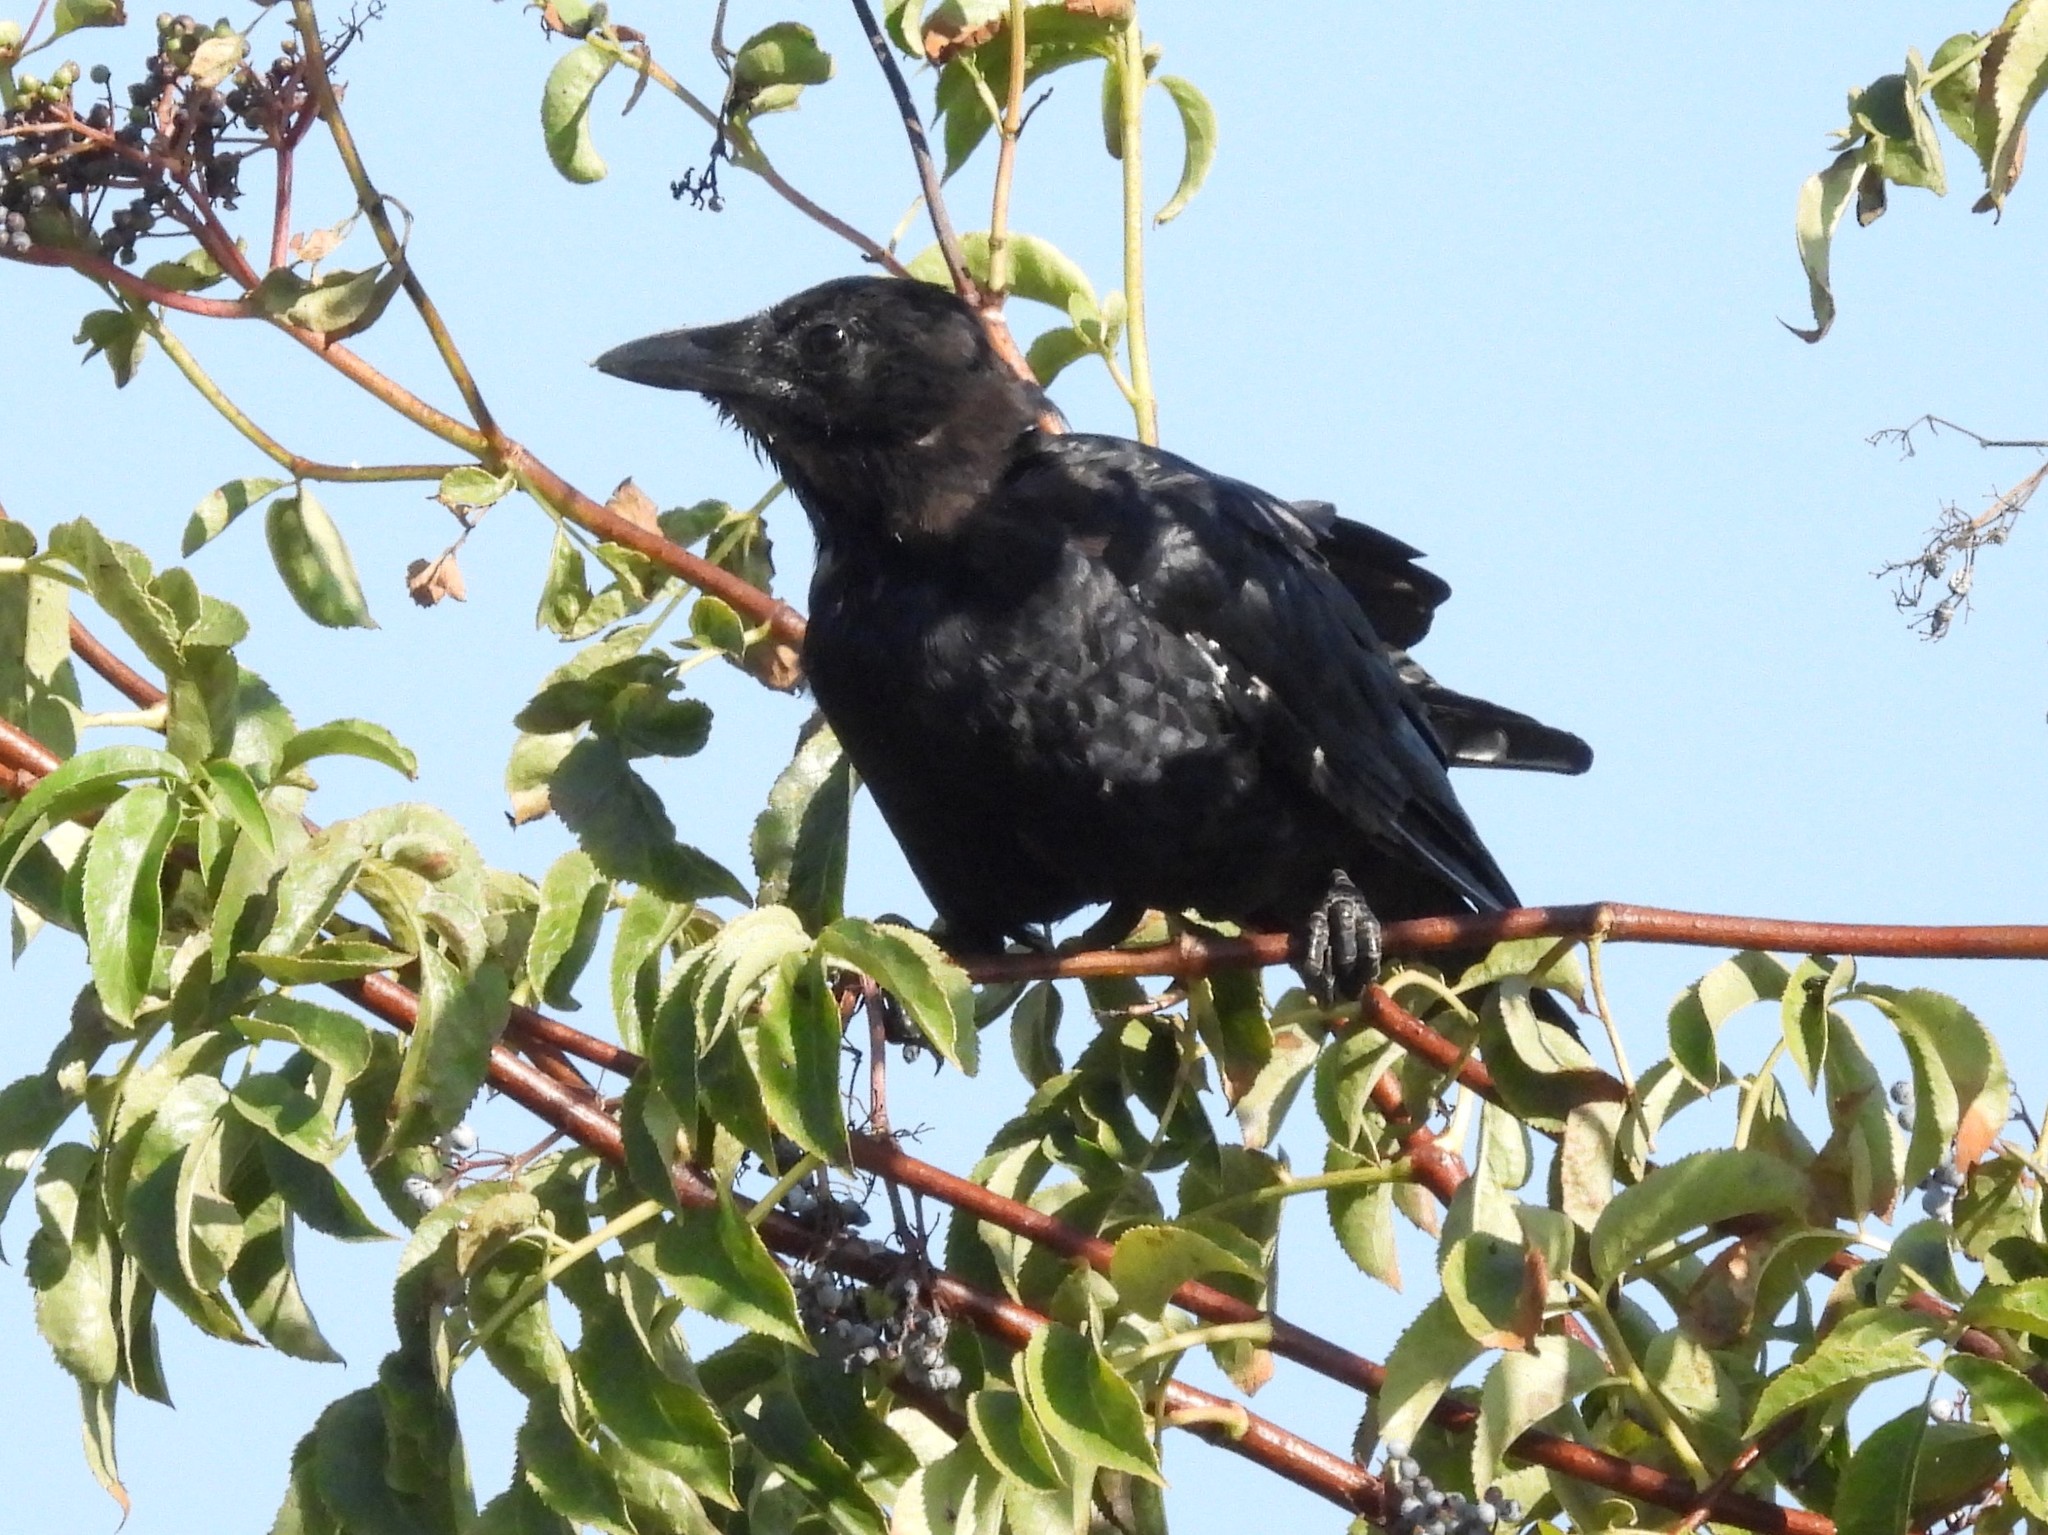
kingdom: Animalia
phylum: Chordata
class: Aves
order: Passeriformes
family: Corvidae
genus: Corvus
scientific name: Corvus brachyrhynchos
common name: American crow
